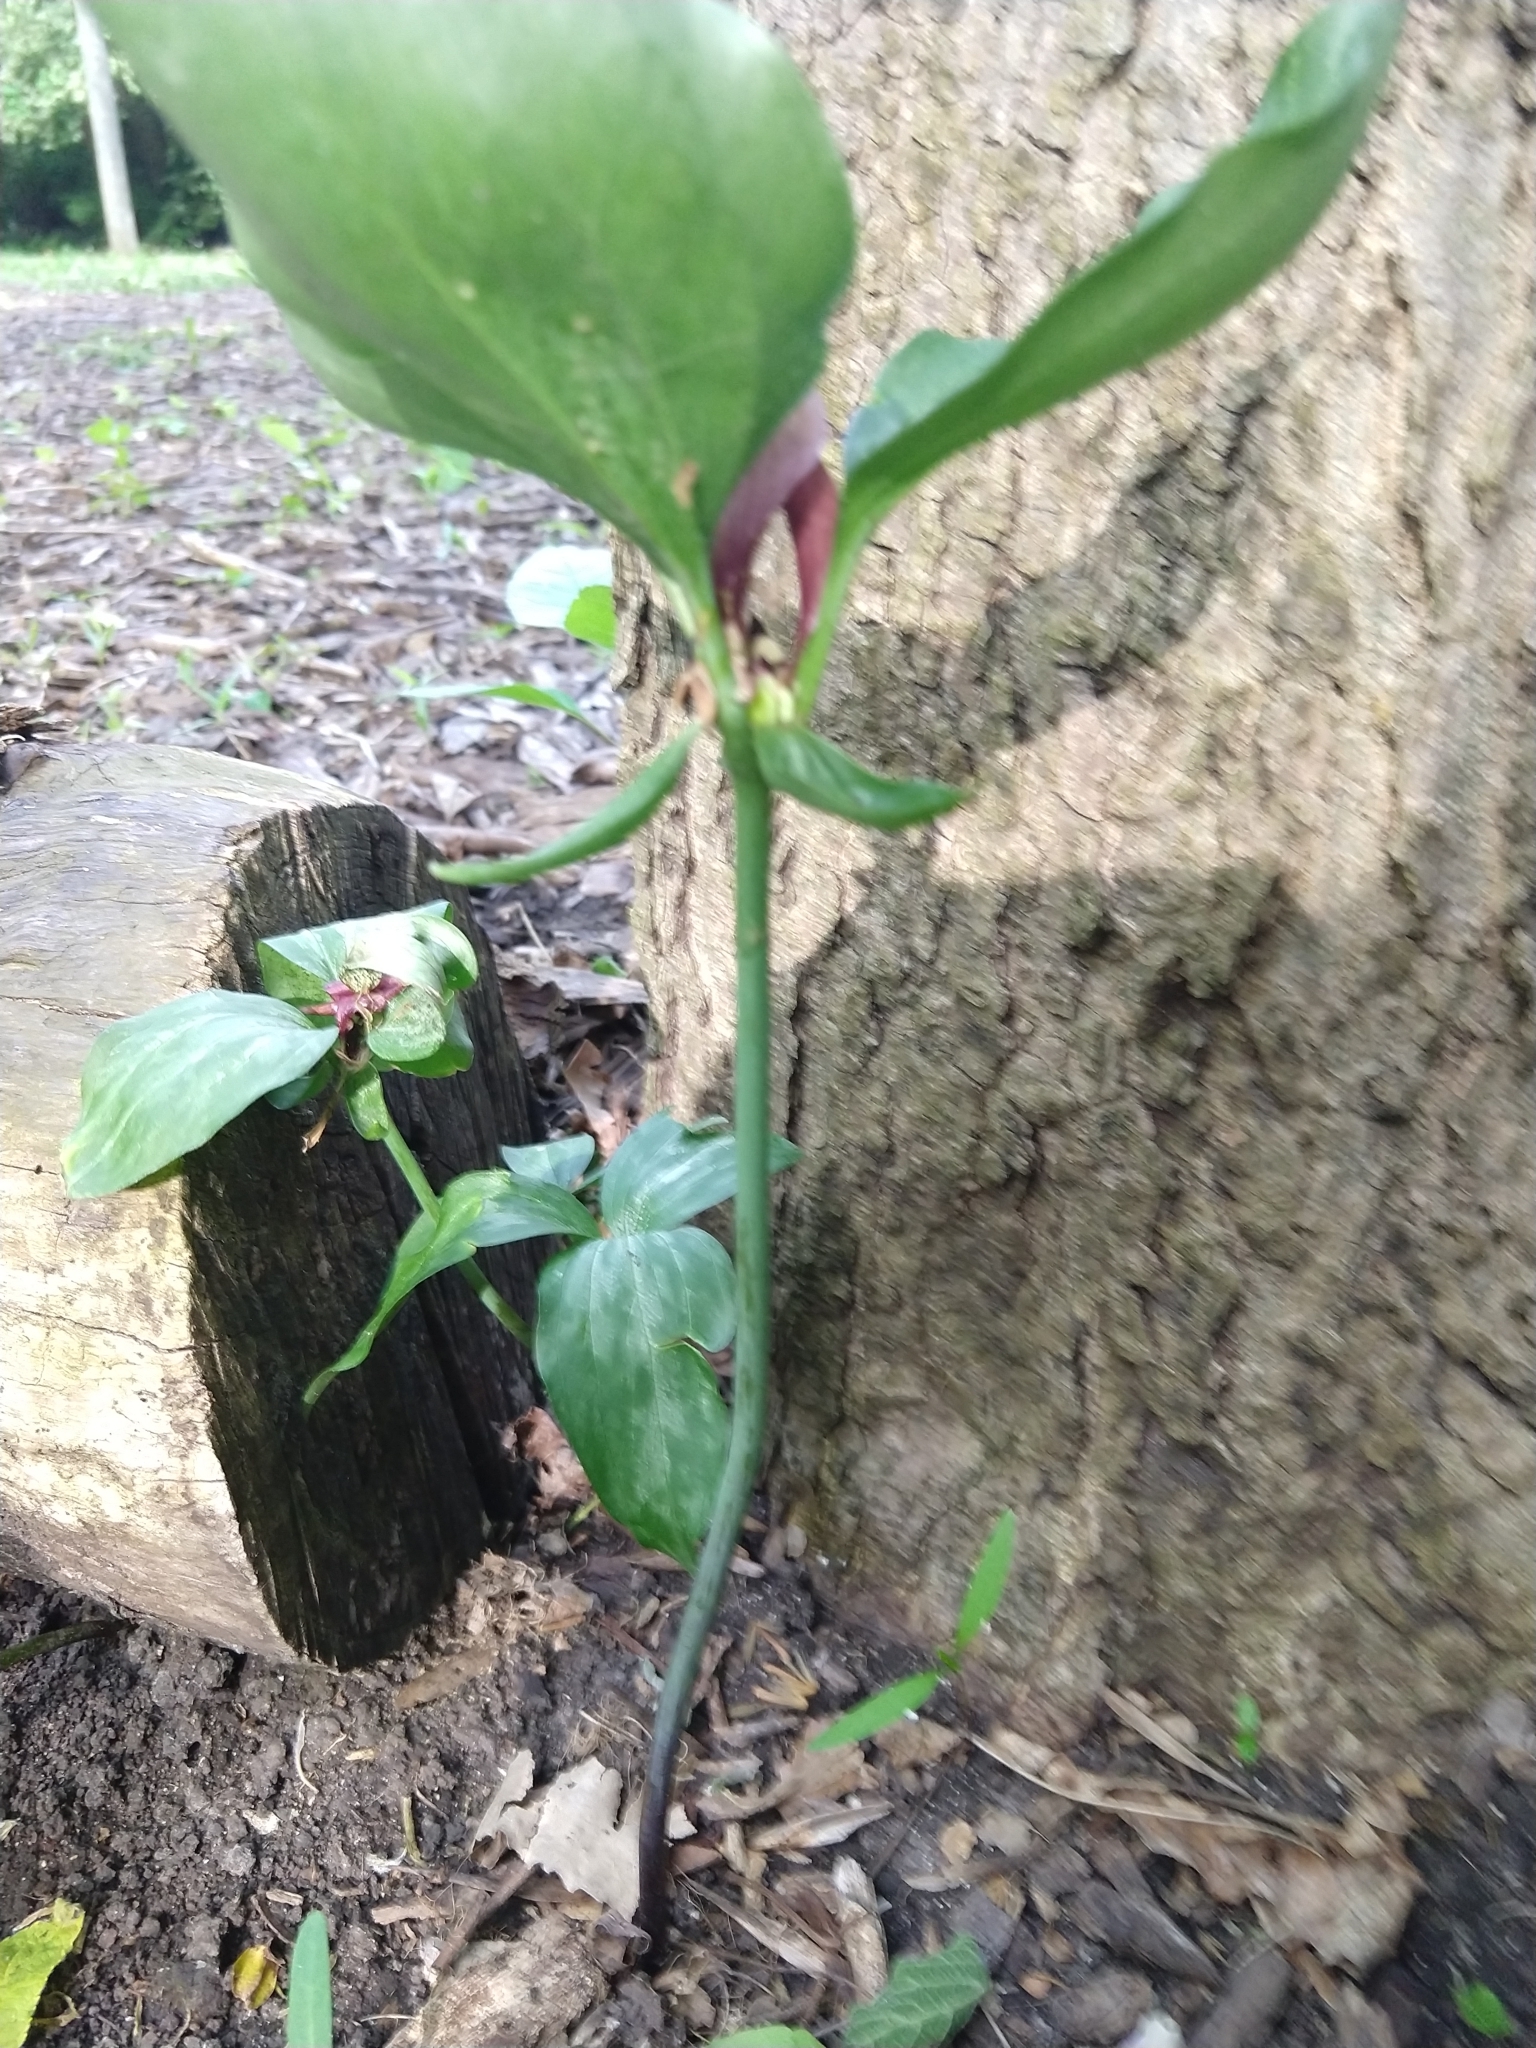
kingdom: Plantae
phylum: Tracheophyta
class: Liliopsida
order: Liliales
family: Melanthiaceae
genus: Trillium
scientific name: Trillium recurvatum
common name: Bloody butcher
